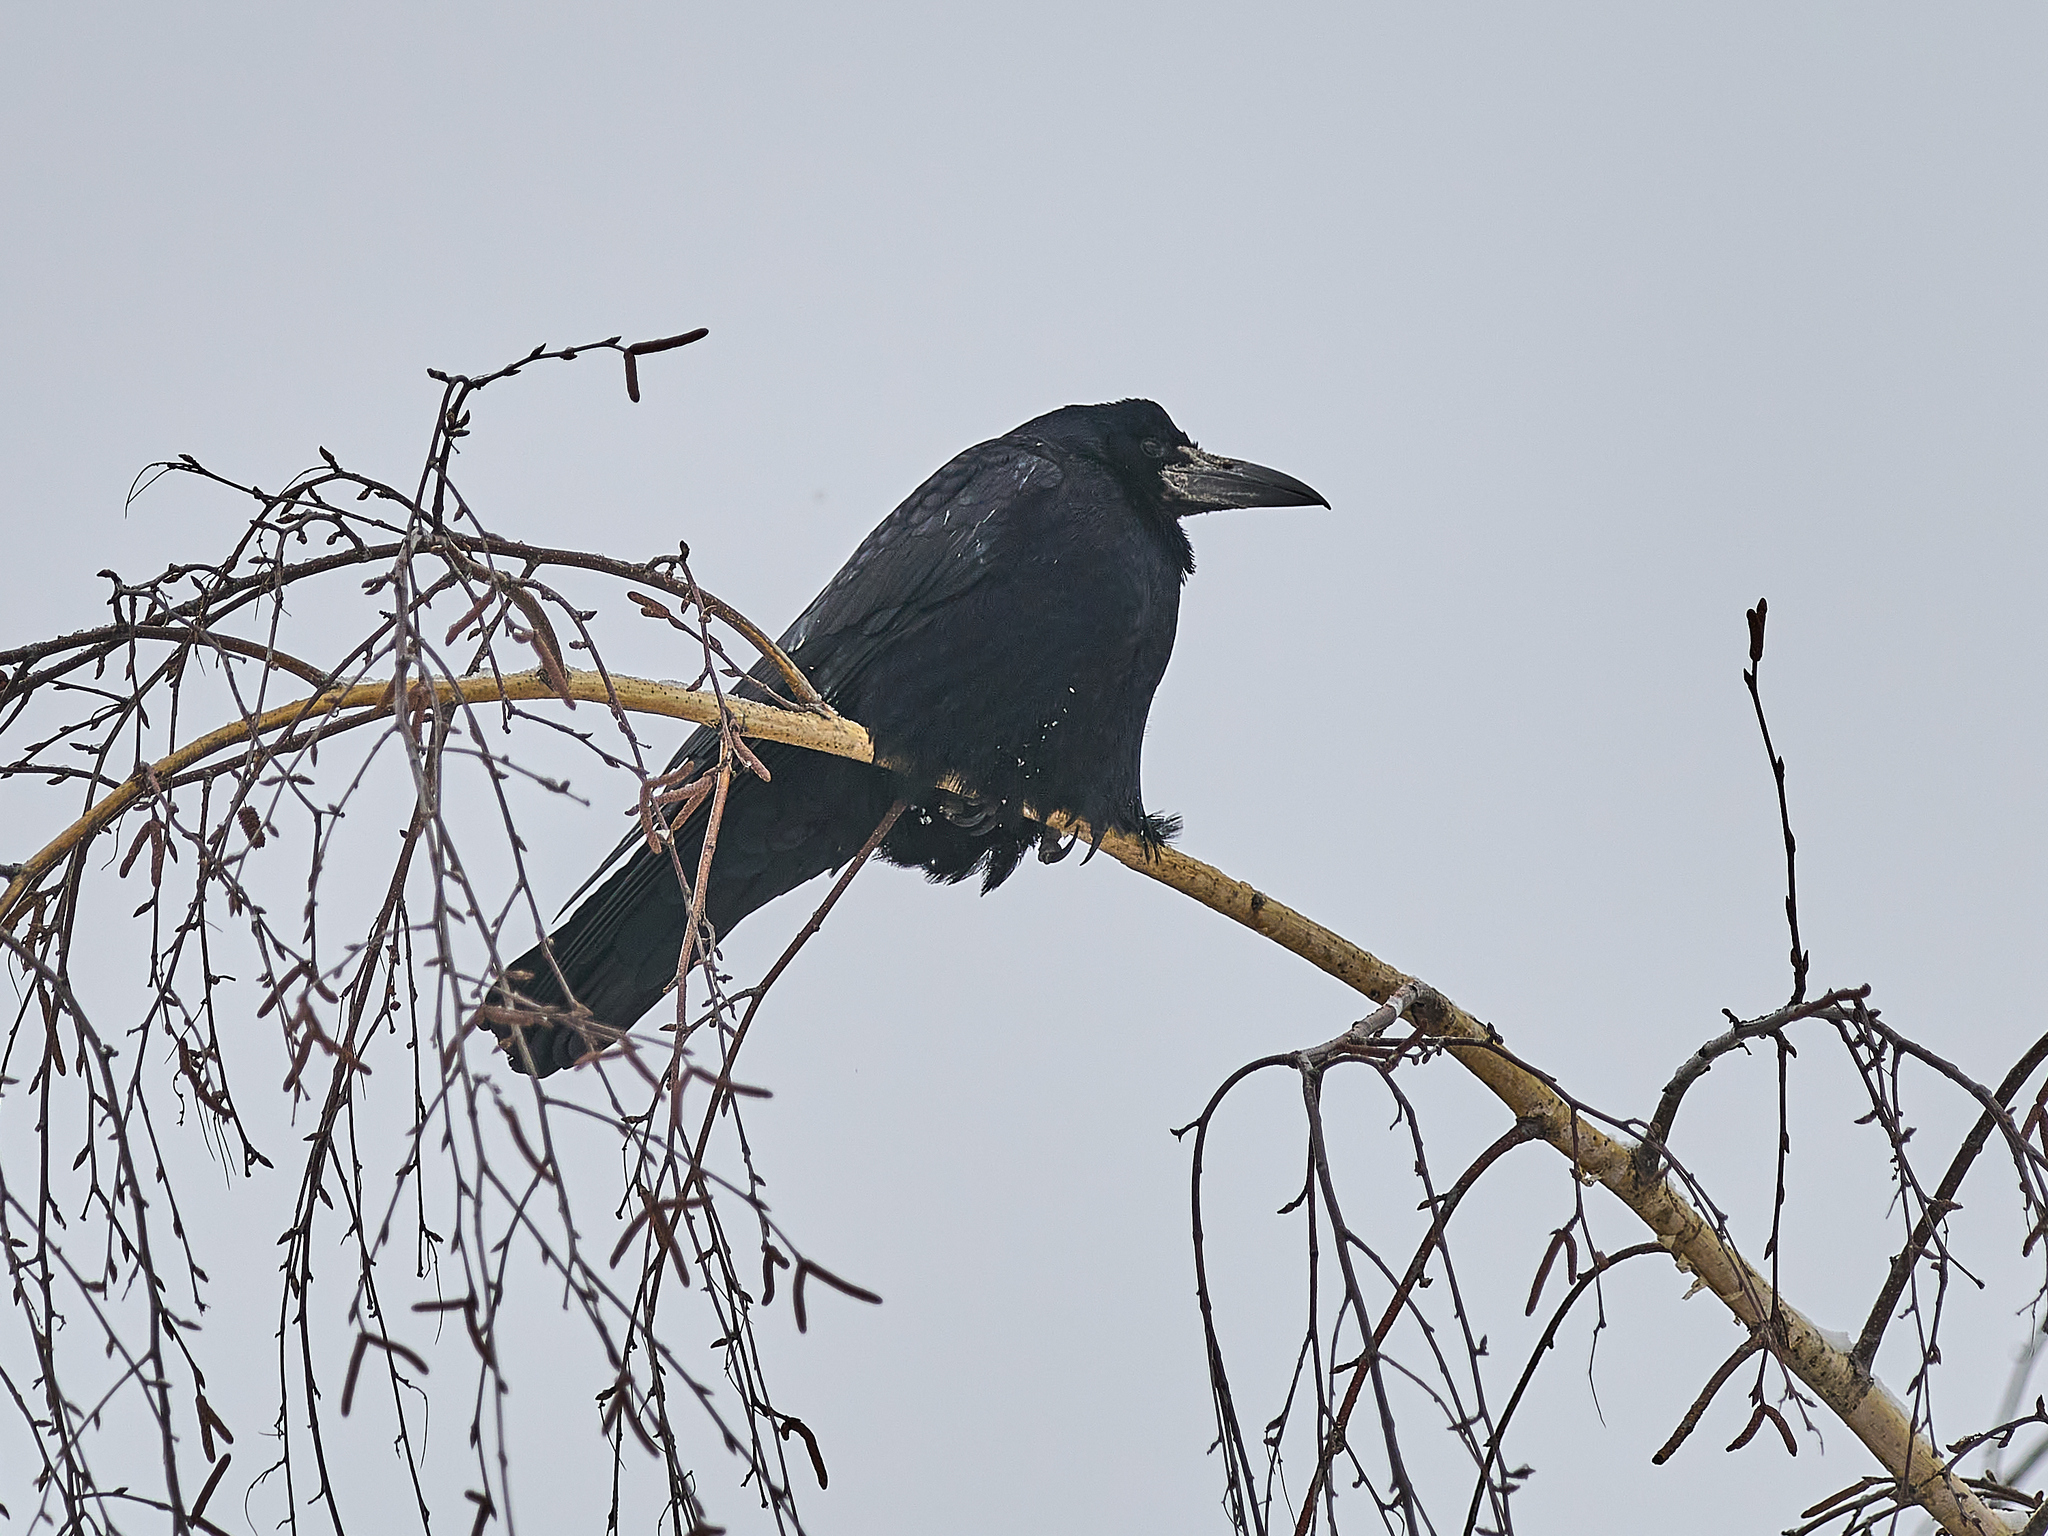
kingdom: Animalia
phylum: Chordata
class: Aves
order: Passeriformes
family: Corvidae
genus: Corvus
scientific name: Corvus frugilegus
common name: Rook
